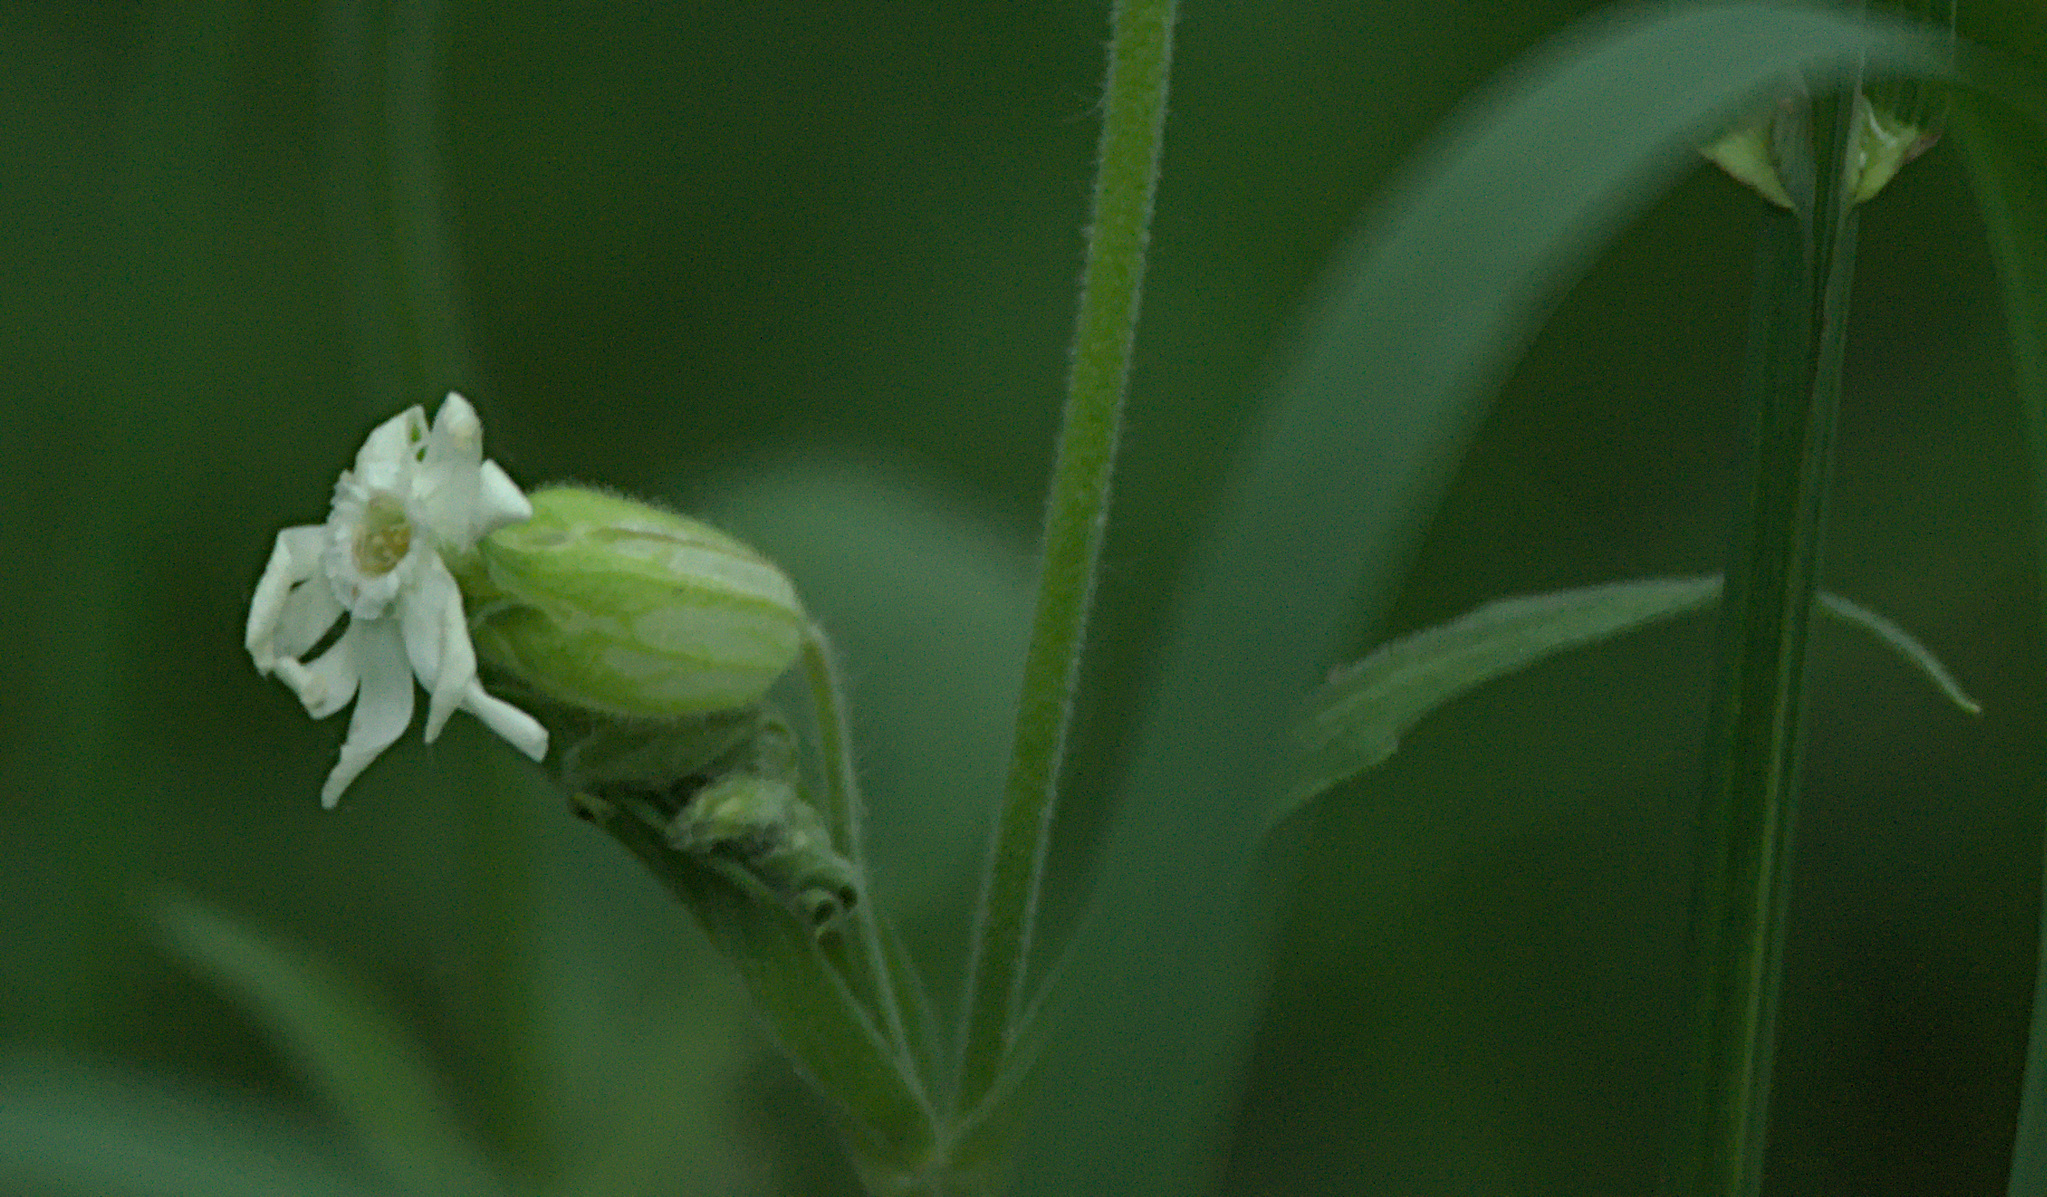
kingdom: Plantae
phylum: Tracheophyta
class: Magnoliopsida
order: Caryophyllales
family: Caryophyllaceae
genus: Silene
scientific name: Silene latifolia
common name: White campion
